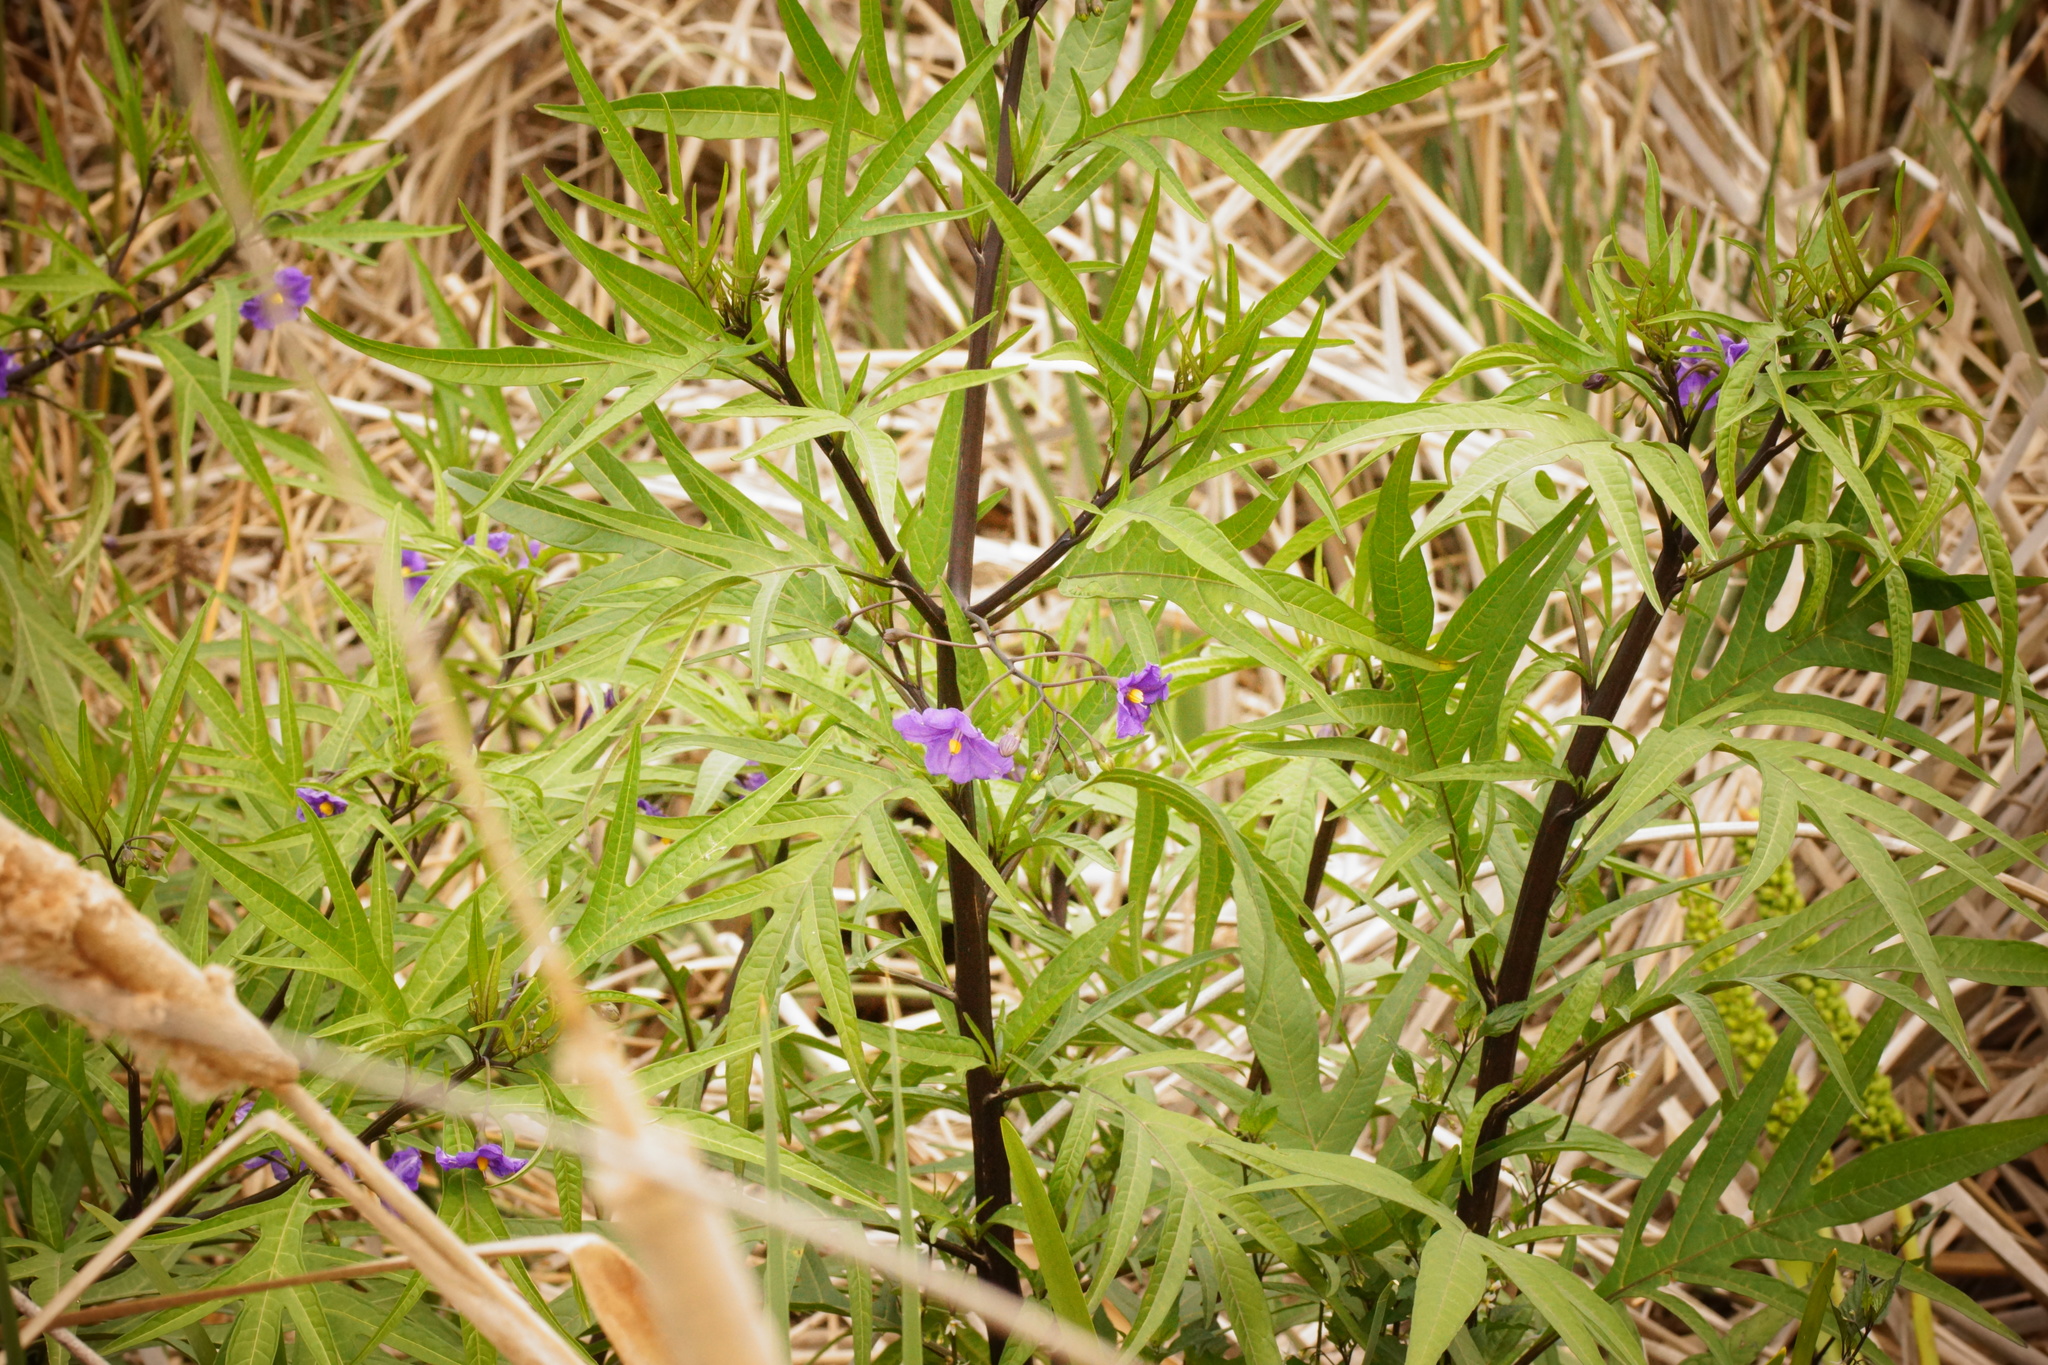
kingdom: Plantae
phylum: Tracheophyta
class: Magnoliopsida
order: Solanales
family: Solanaceae
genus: Solanum
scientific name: Solanum laciniatum
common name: Kangaroo-apple
